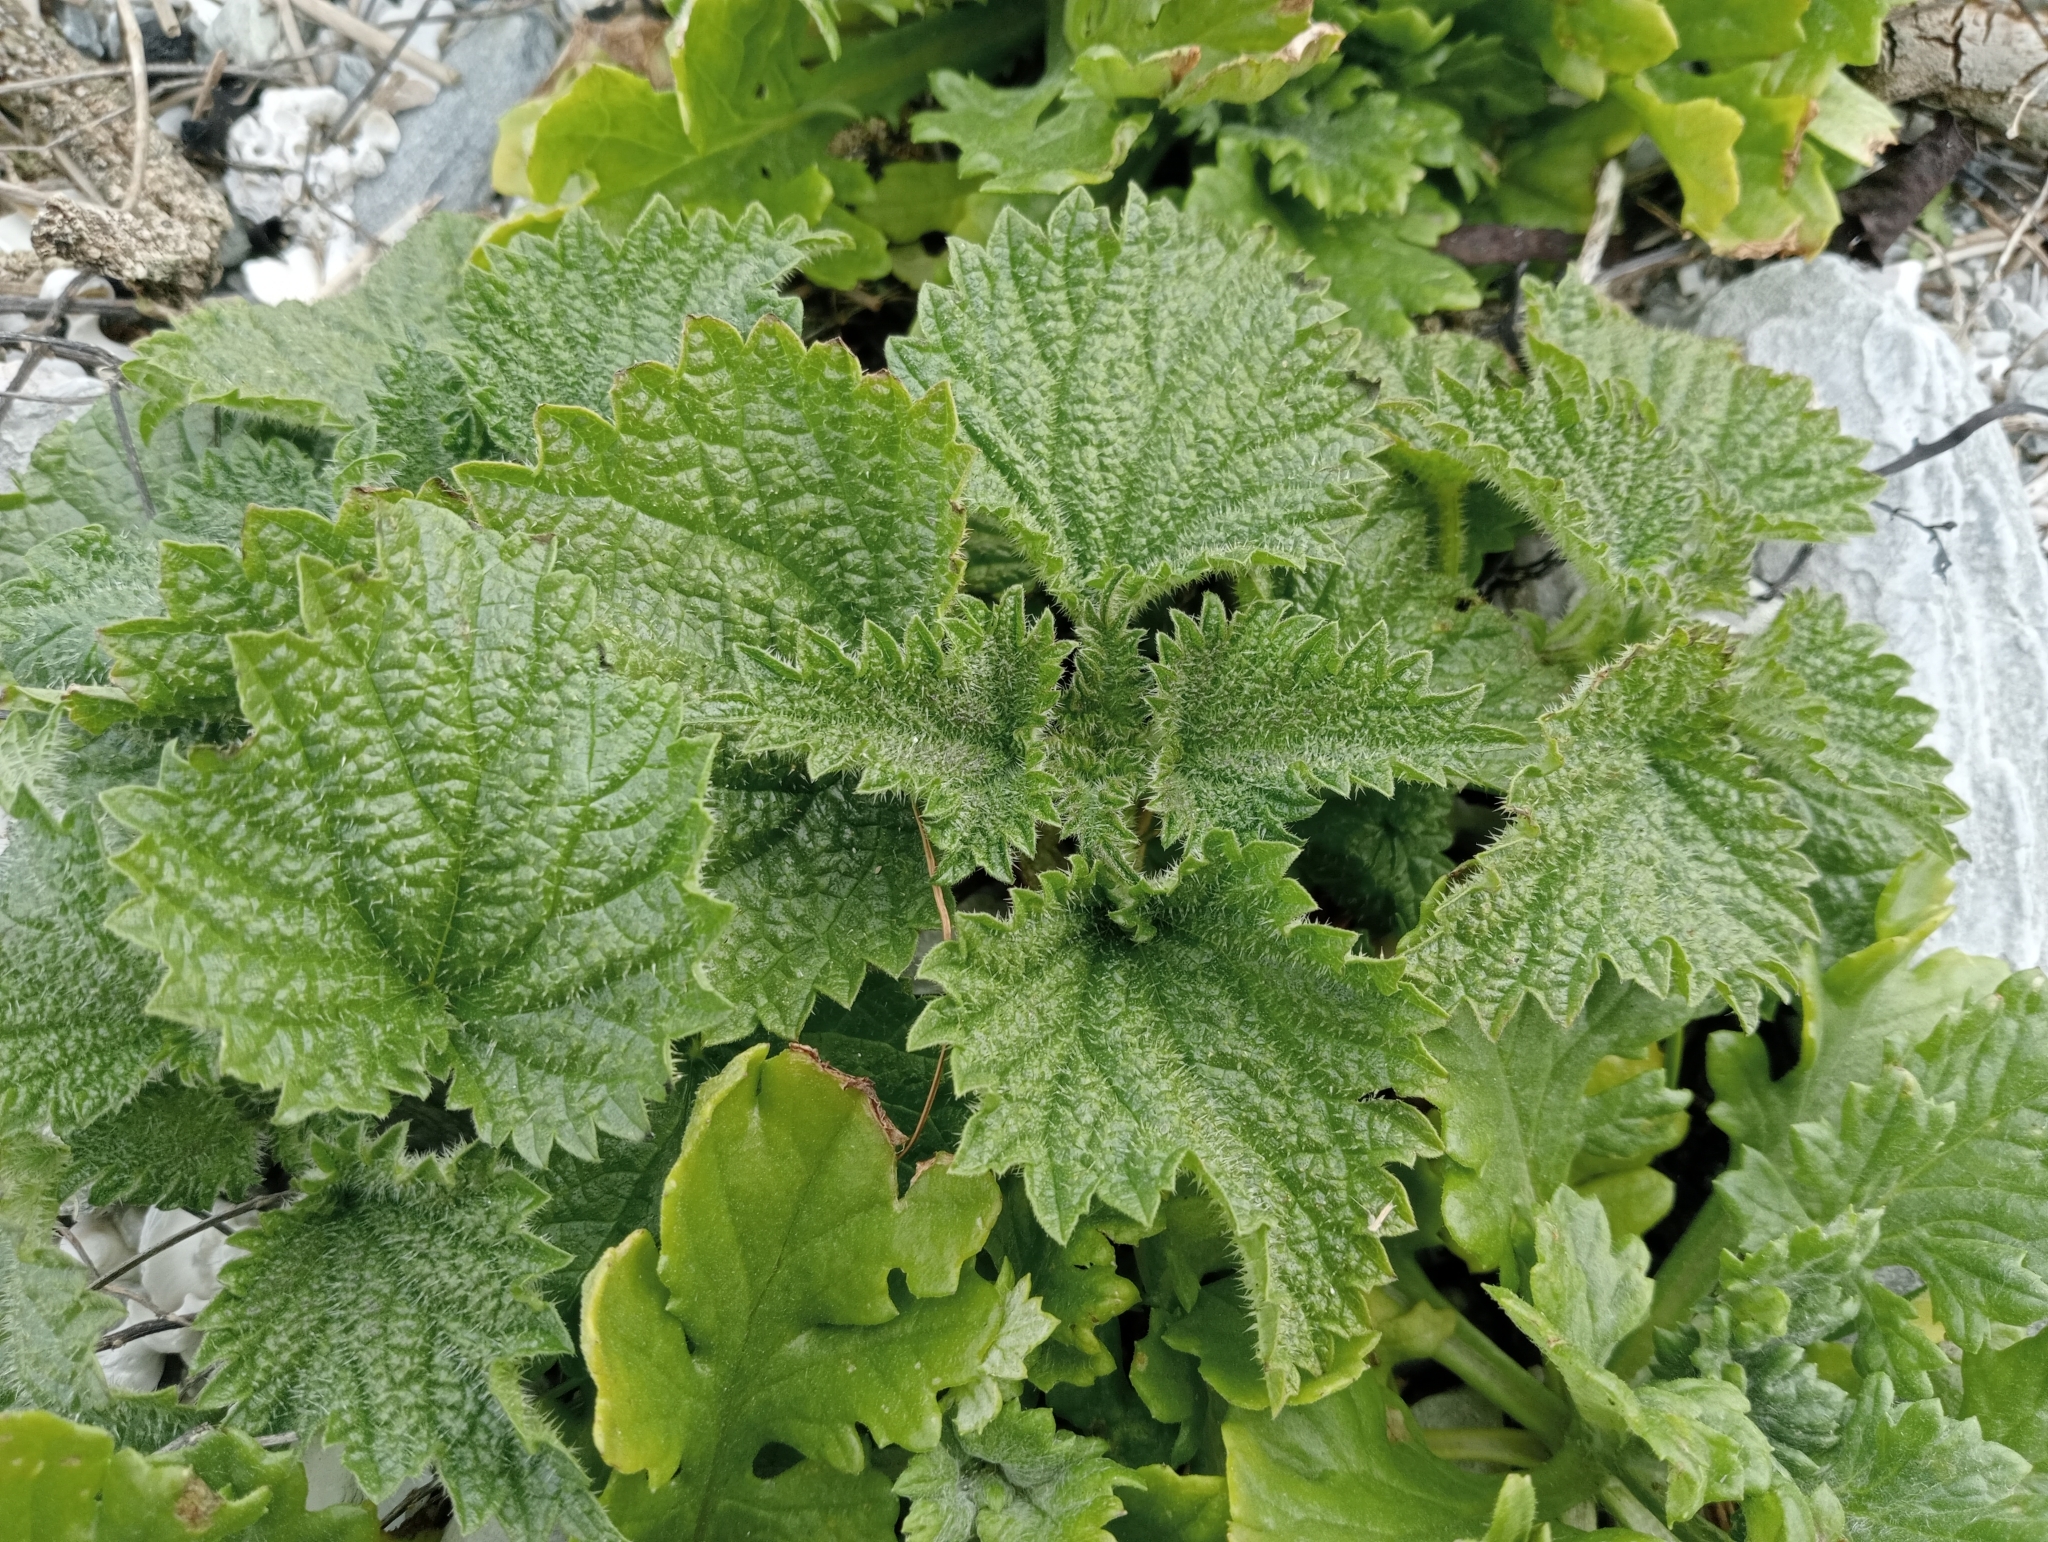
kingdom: Plantae
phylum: Tracheophyta
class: Magnoliopsida
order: Rosales
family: Urticaceae
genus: Urtica
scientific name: Urtica australis
